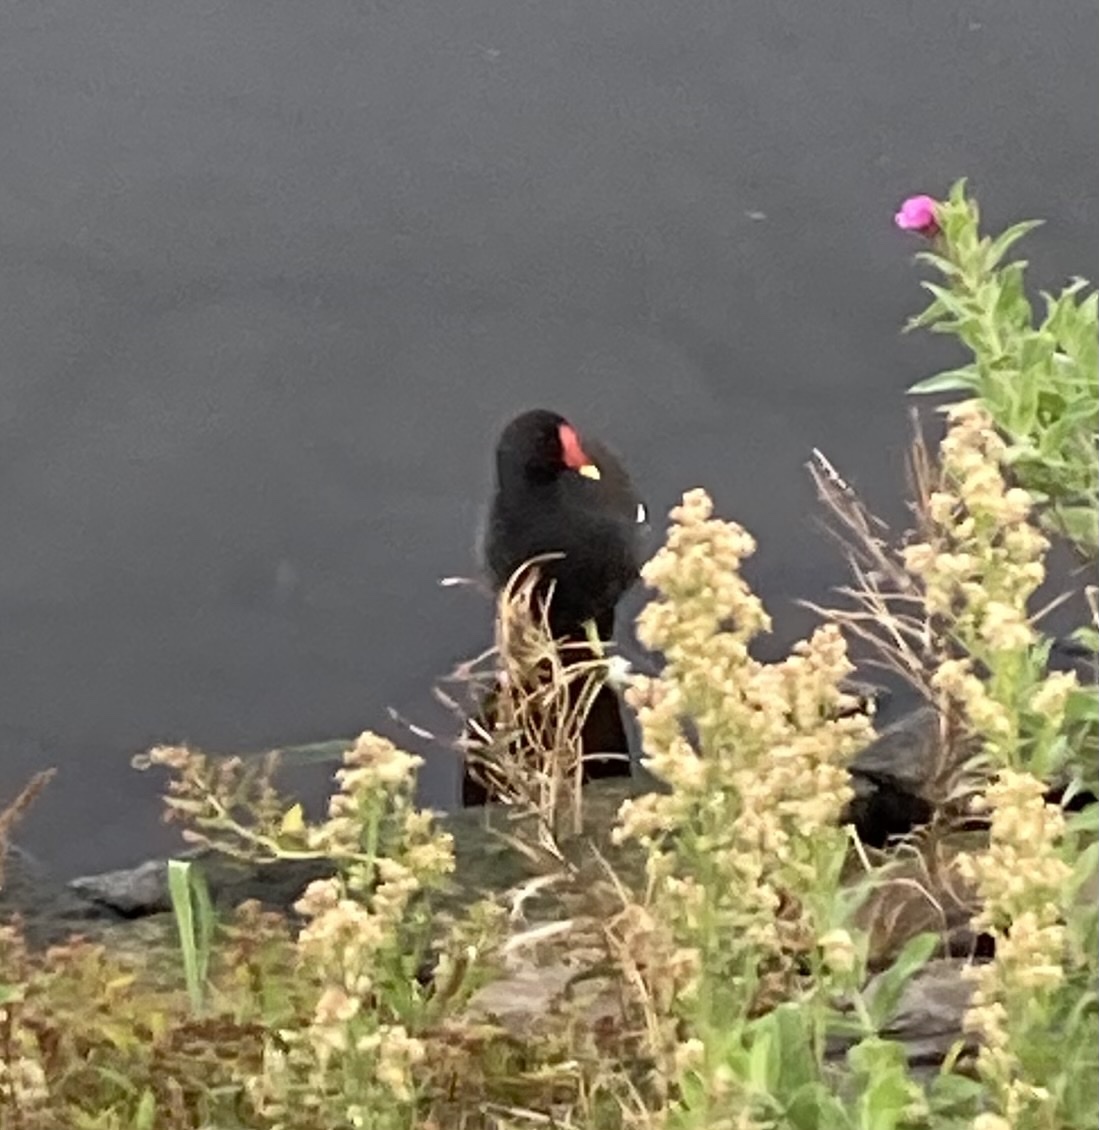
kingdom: Animalia
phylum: Chordata
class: Aves
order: Gruiformes
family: Rallidae
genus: Gallinula
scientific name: Gallinula chloropus
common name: Common moorhen
